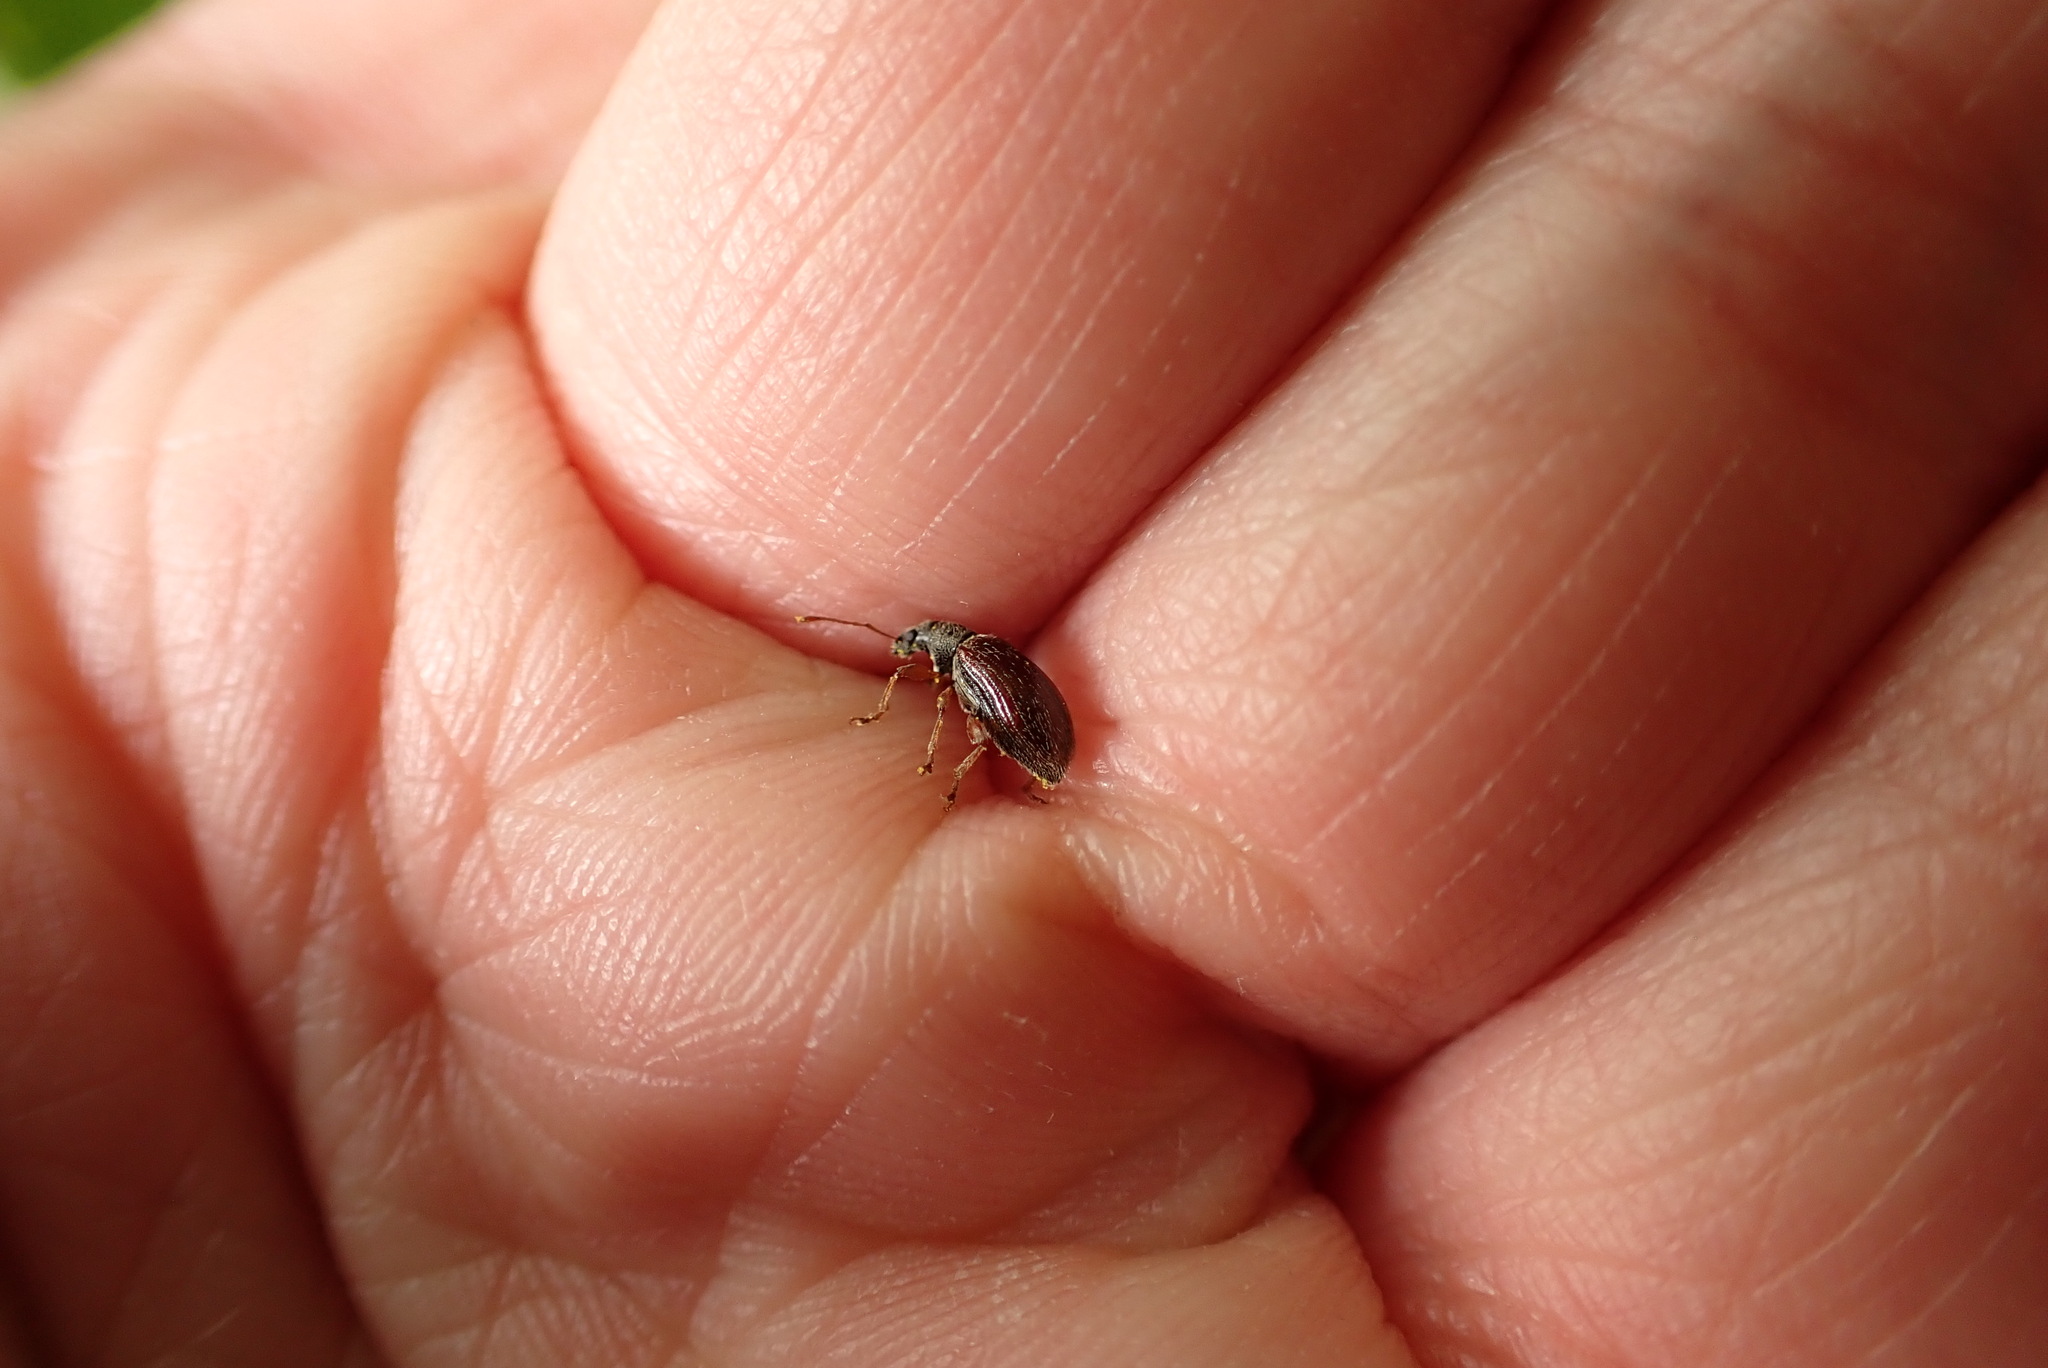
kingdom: Animalia
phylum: Arthropoda
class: Insecta
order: Coleoptera
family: Curculionidae
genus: Phyllobius
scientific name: Phyllobius oblongus
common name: Brown leaf weevil
